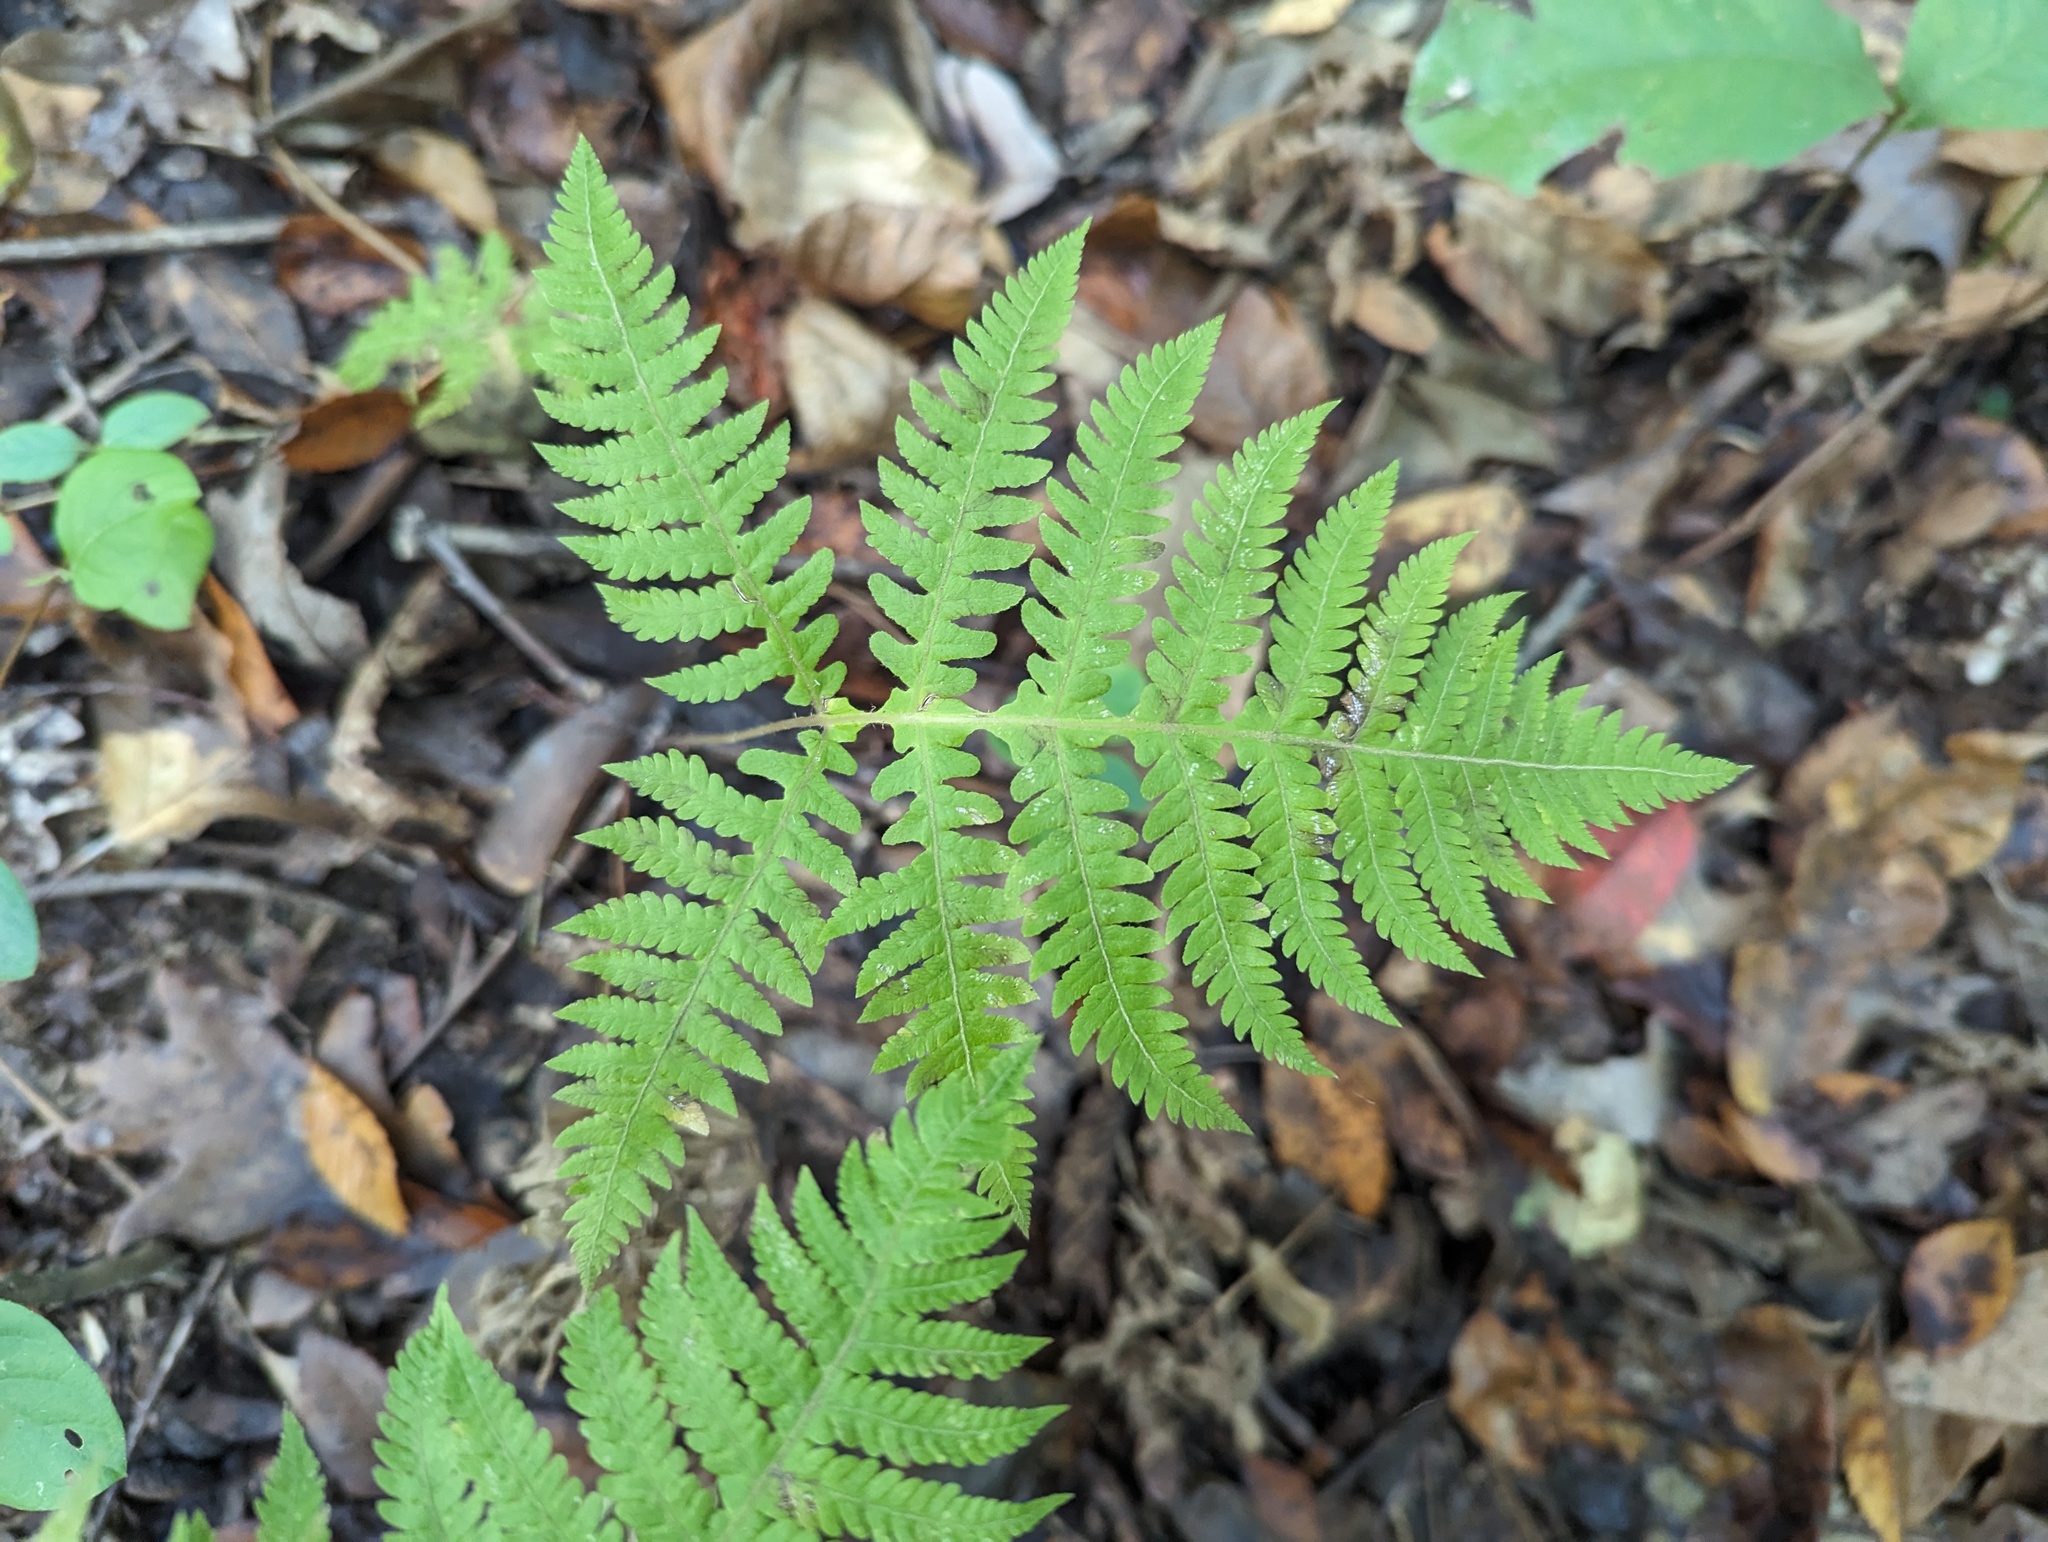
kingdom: Plantae
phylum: Tracheophyta
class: Polypodiopsida
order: Polypodiales
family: Thelypteridaceae
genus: Phegopteris
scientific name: Phegopteris hexagonoptera
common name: Broad beech fern
